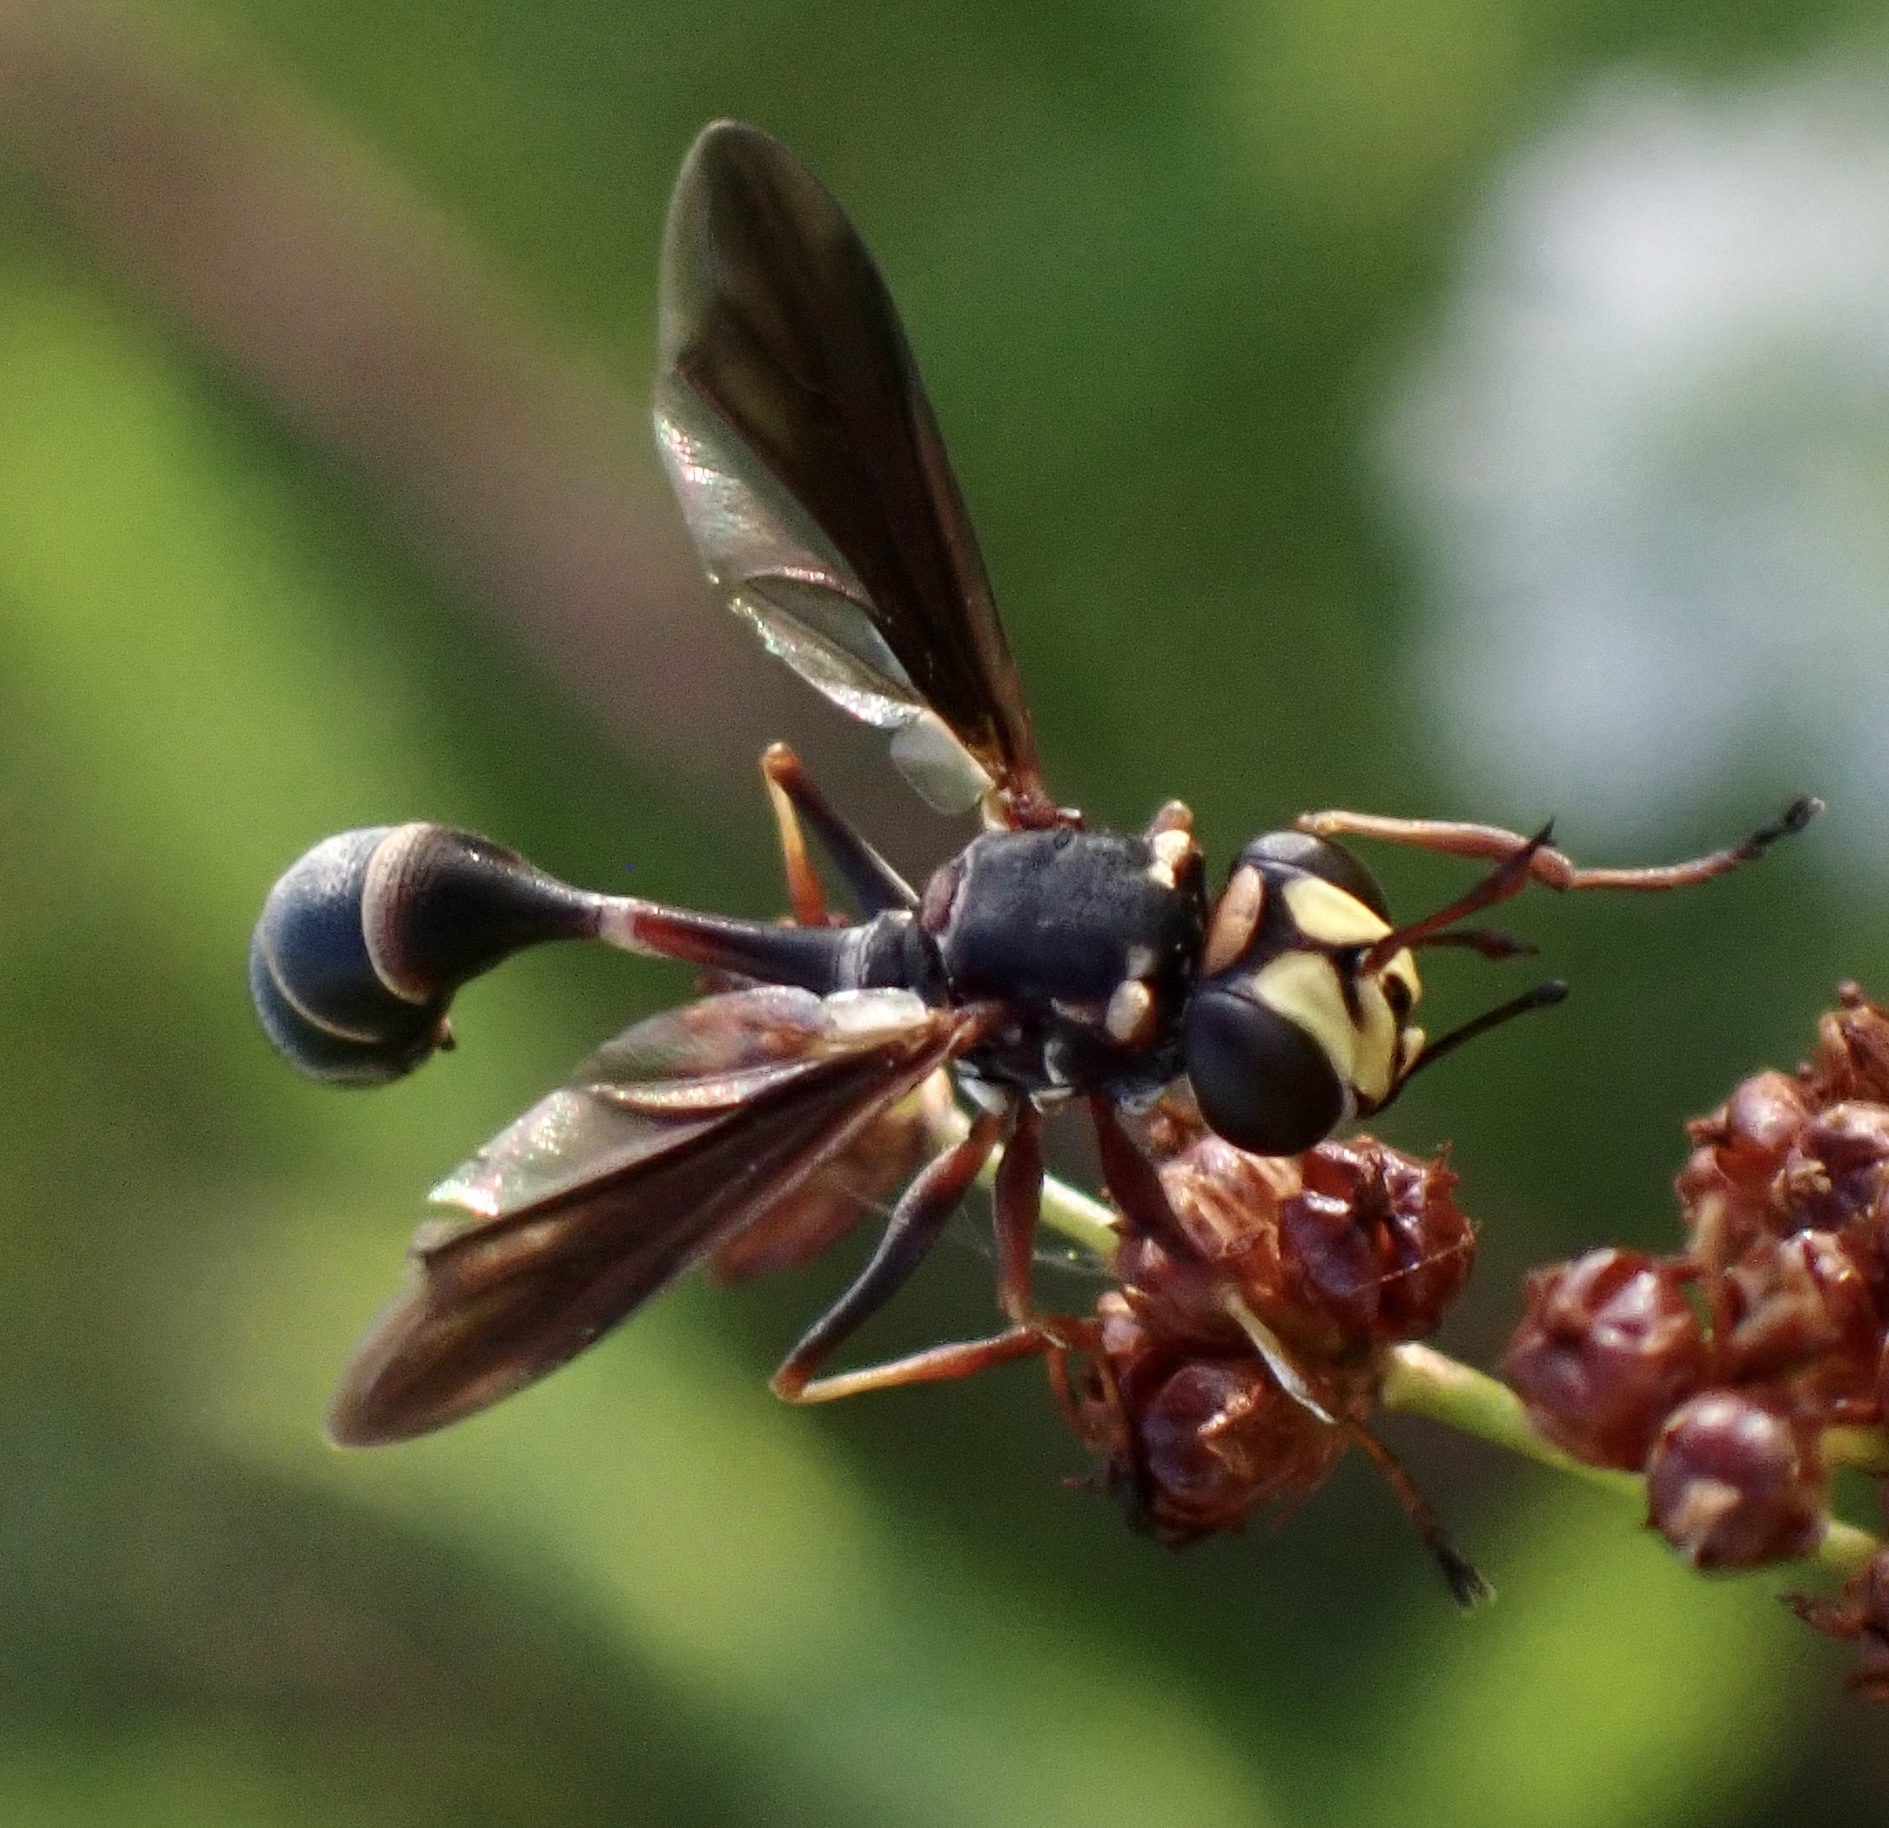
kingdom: Animalia
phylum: Arthropoda
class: Insecta
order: Diptera
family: Conopidae
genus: Physocephala
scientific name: Physocephala sagittaria
